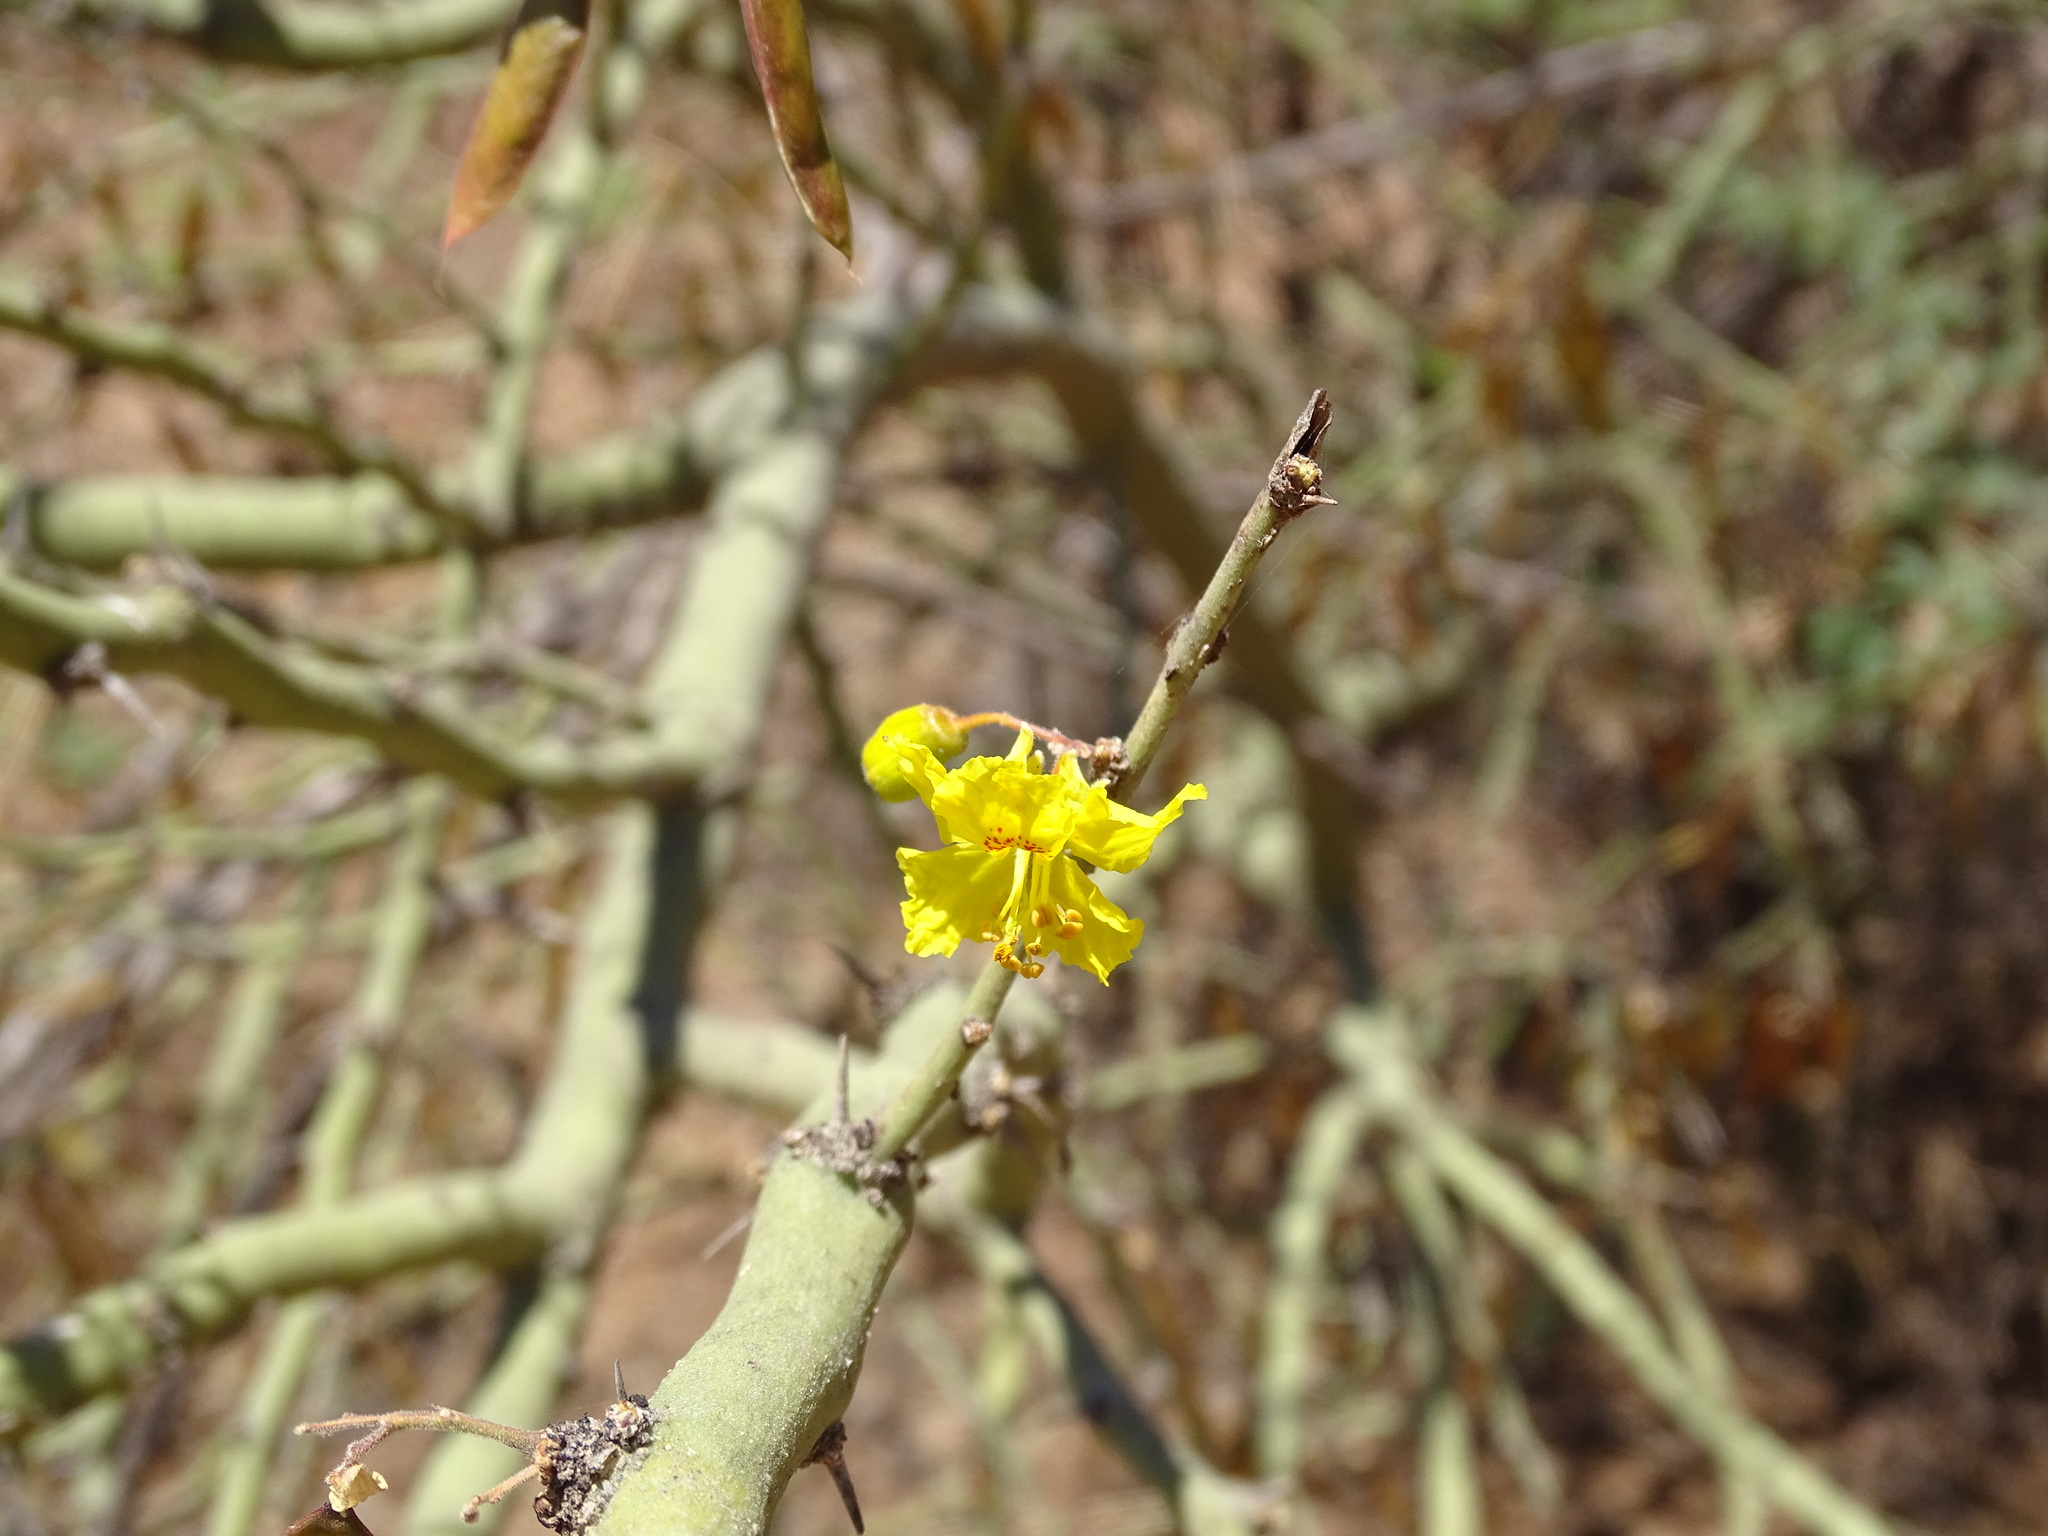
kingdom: Plantae
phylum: Tracheophyta
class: Magnoliopsida
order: Fabales
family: Fabaceae
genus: Parkinsonia
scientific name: Parkinsonia praecox
